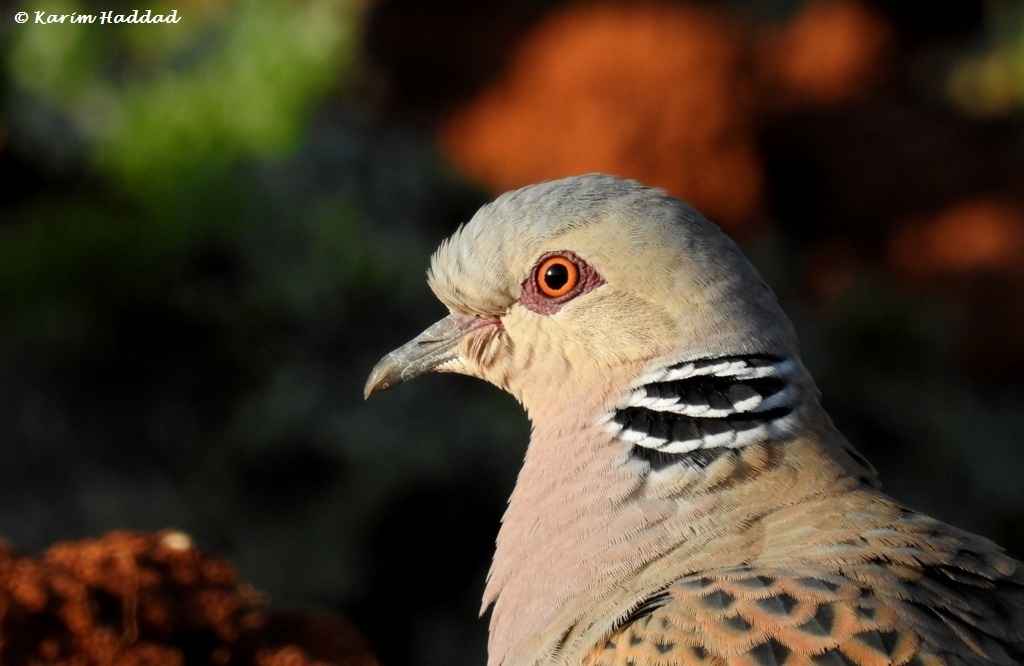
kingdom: Animalia
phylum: Chordata
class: Aves
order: Columbiformes
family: Columbidae
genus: Streptopelia
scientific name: Streptopelia turtur
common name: European turtle dove
